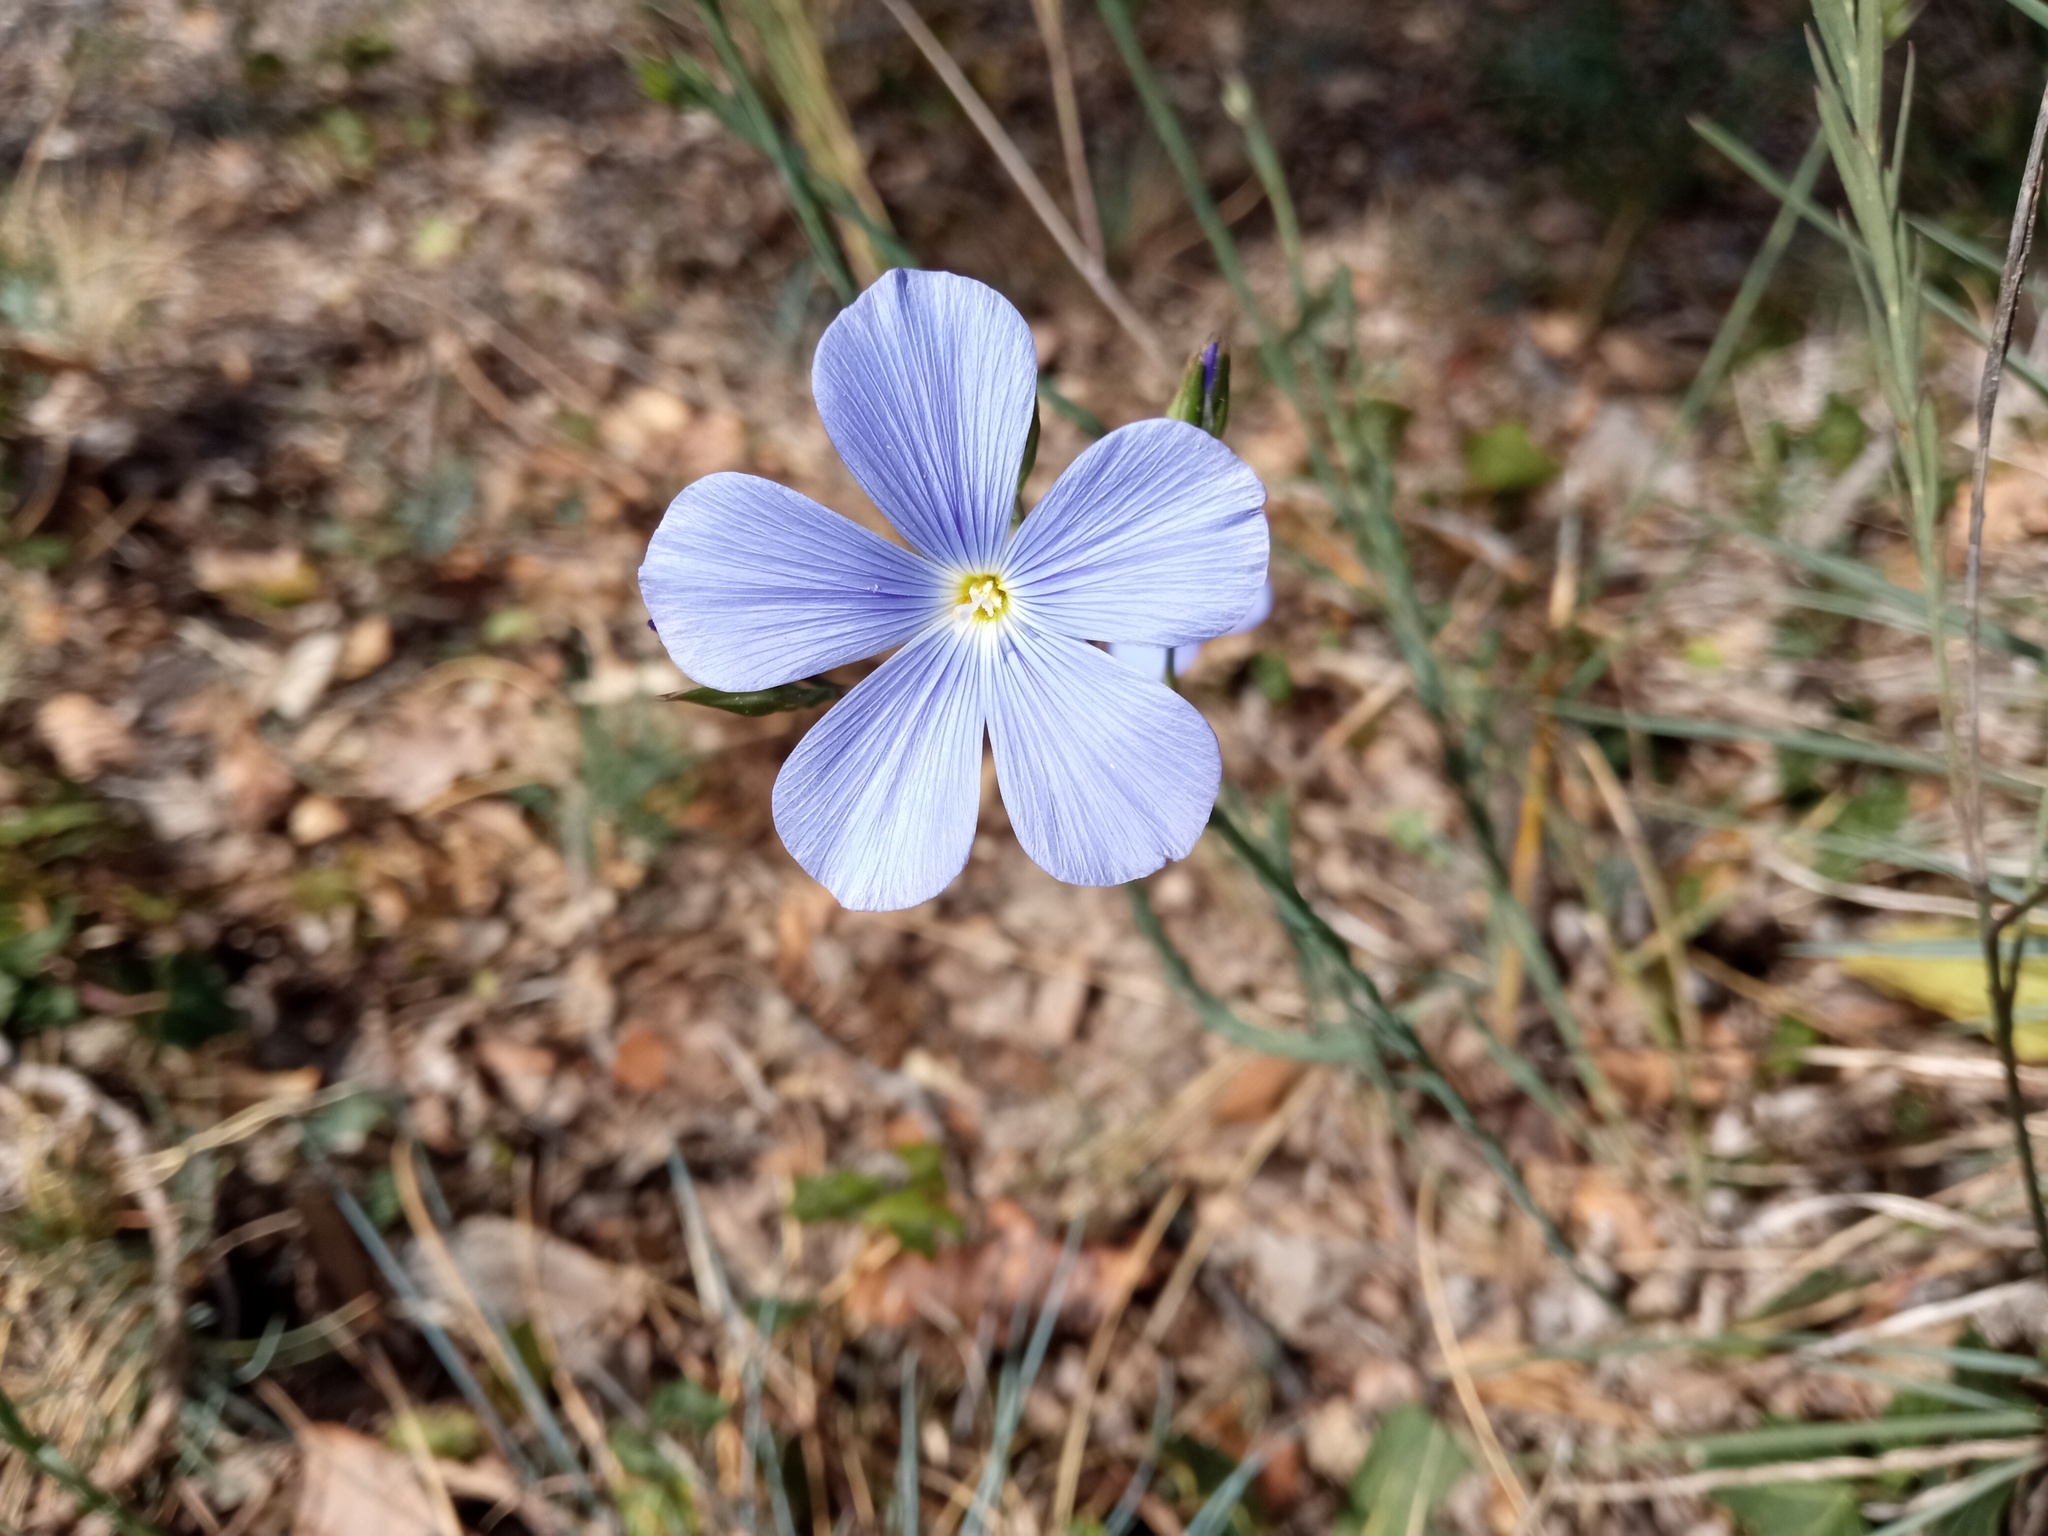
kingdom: Plantae
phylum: Tracheophyta
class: Magnoliopsida
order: Malpighiales
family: Linaceae
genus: Linum
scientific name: Linum narbonense
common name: Flax
